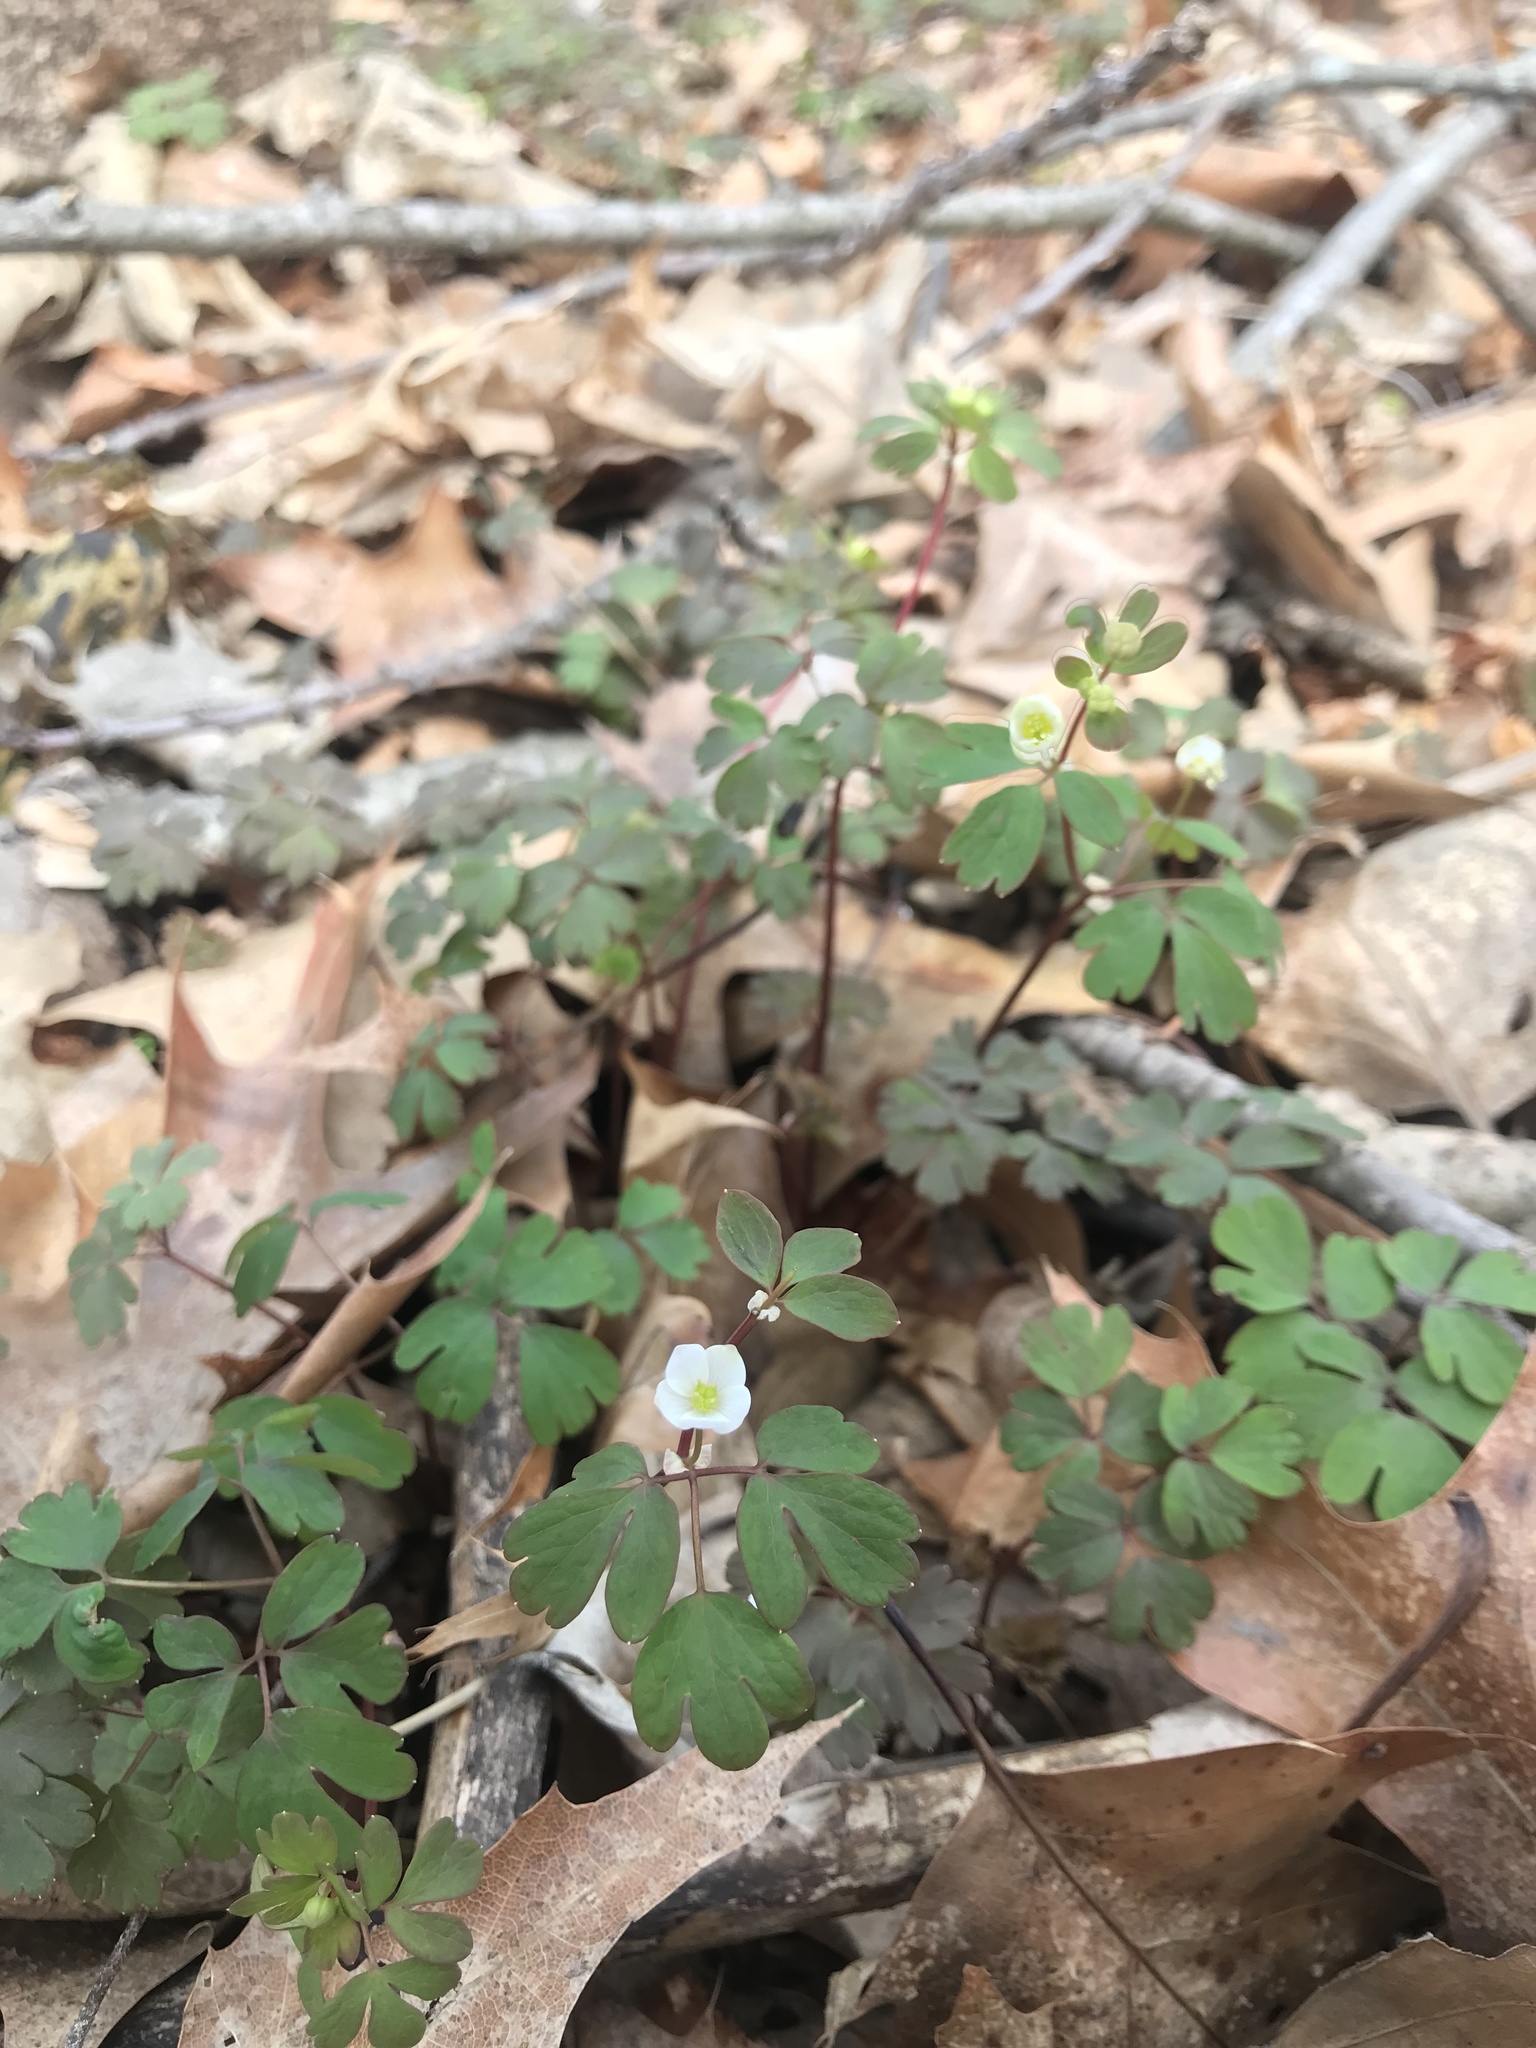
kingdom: Plantae
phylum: Tracheophyta
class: Magnoliopsida
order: Ranunculales
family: Ranunculaceae
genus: Enemion
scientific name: Enemion biternatum
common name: Eastern false rue-anemone
